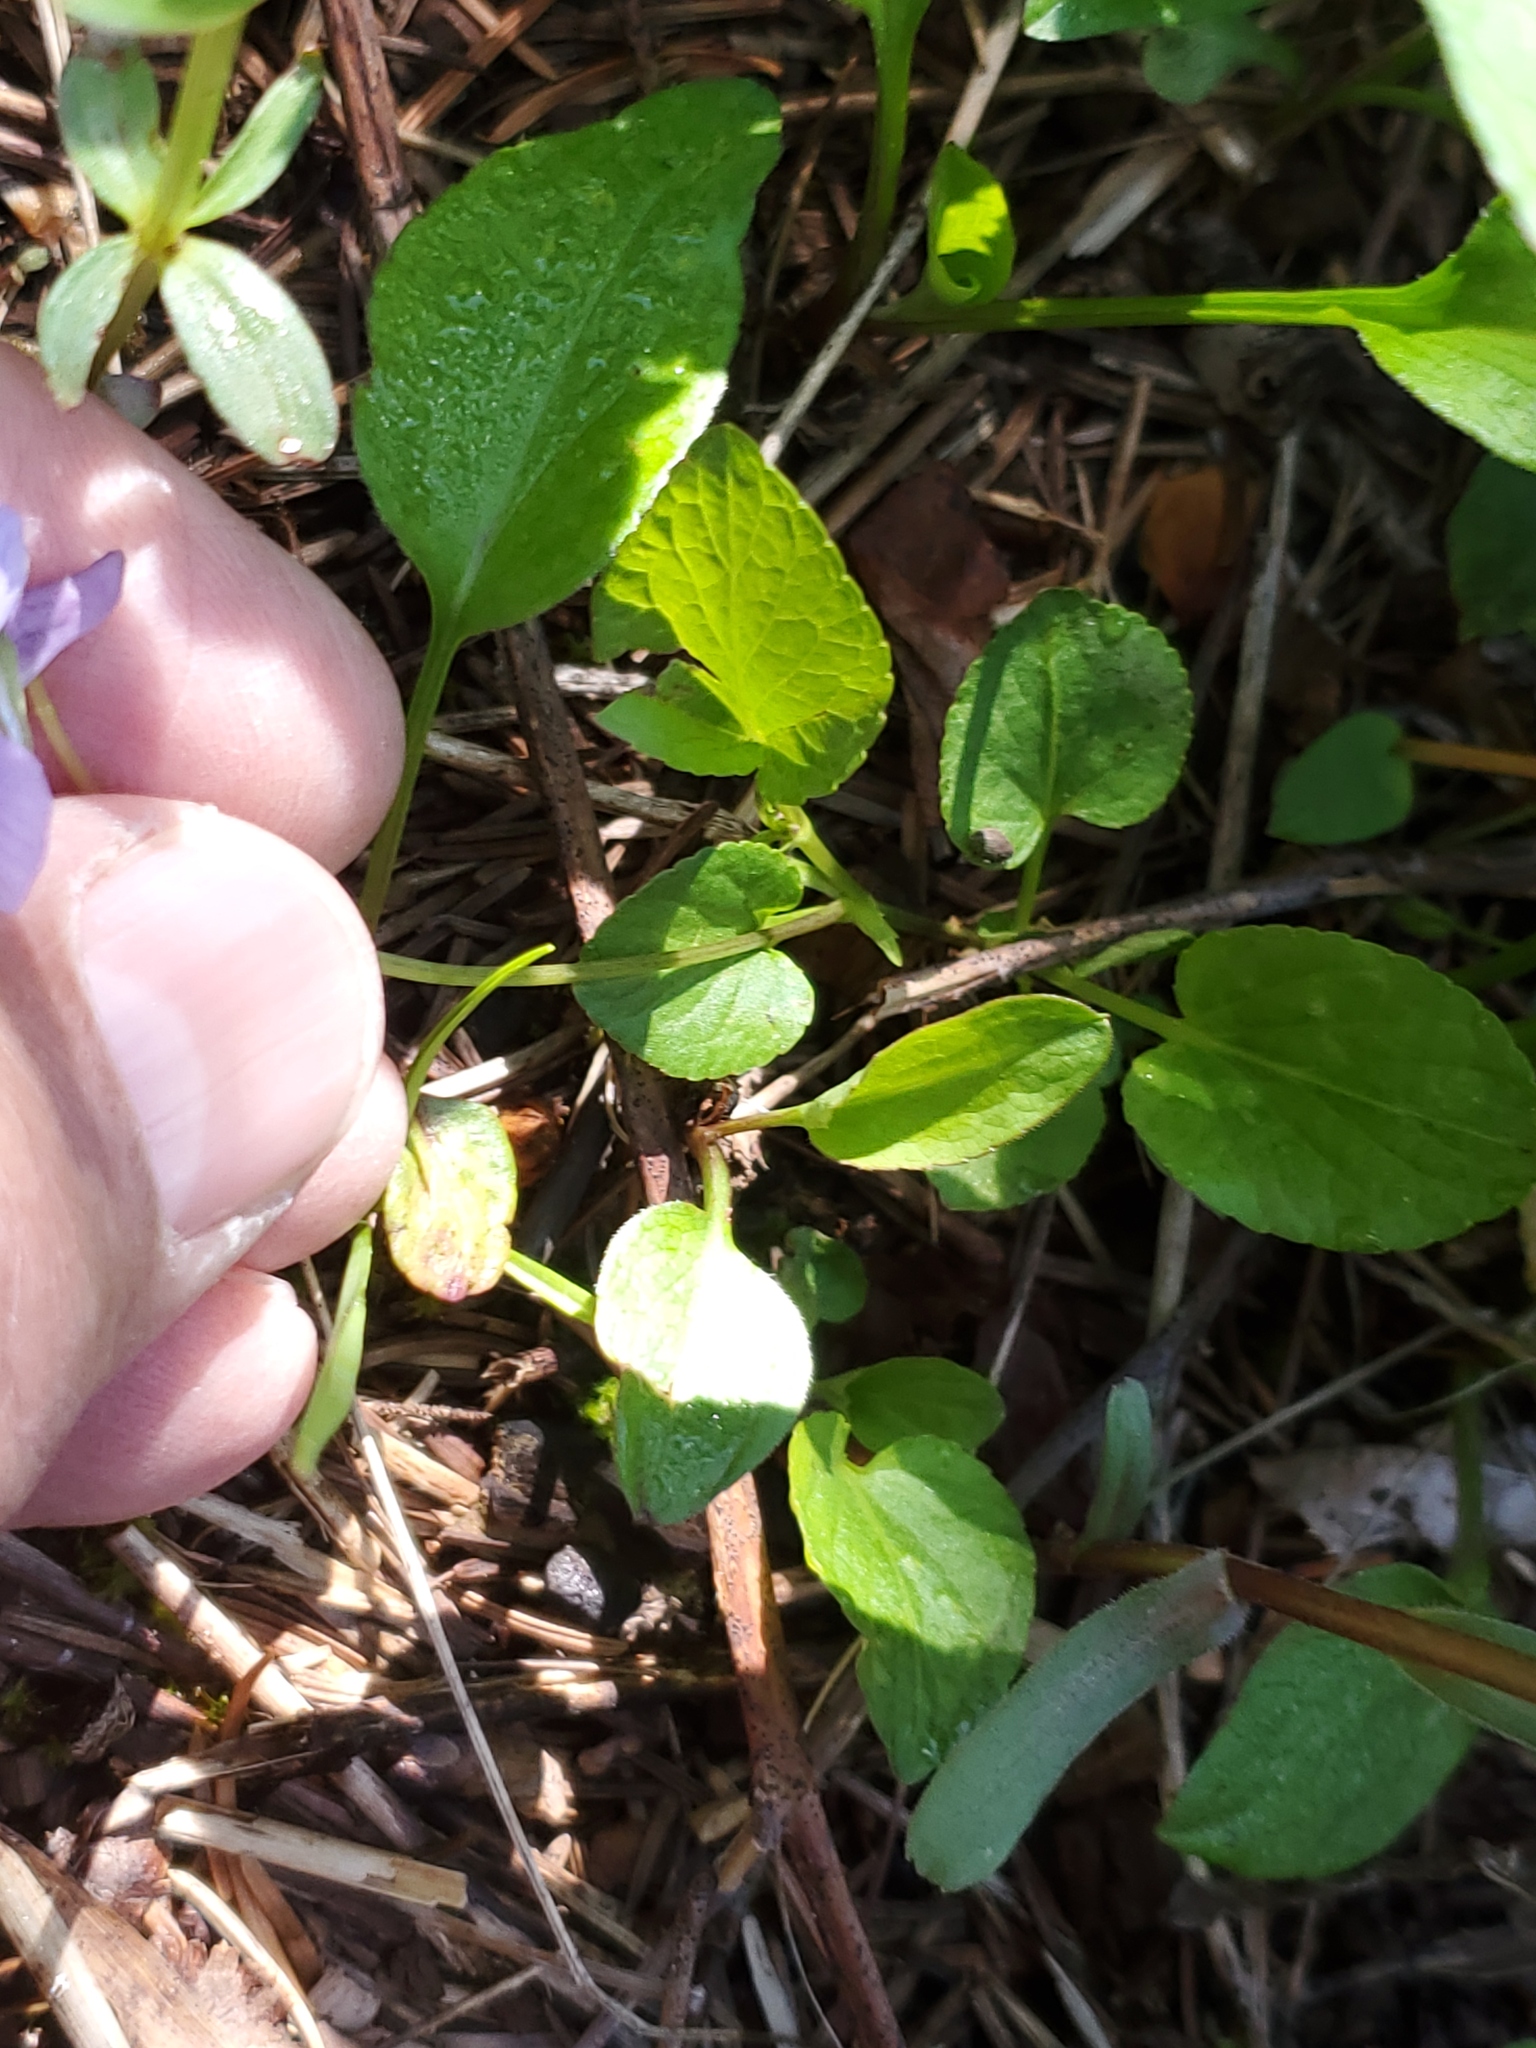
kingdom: Plantae
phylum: Tracheophyta
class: Magnoliopsida
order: Malpighiales
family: Violaceae
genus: Viola
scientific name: Viola adunca
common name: Sand violet
